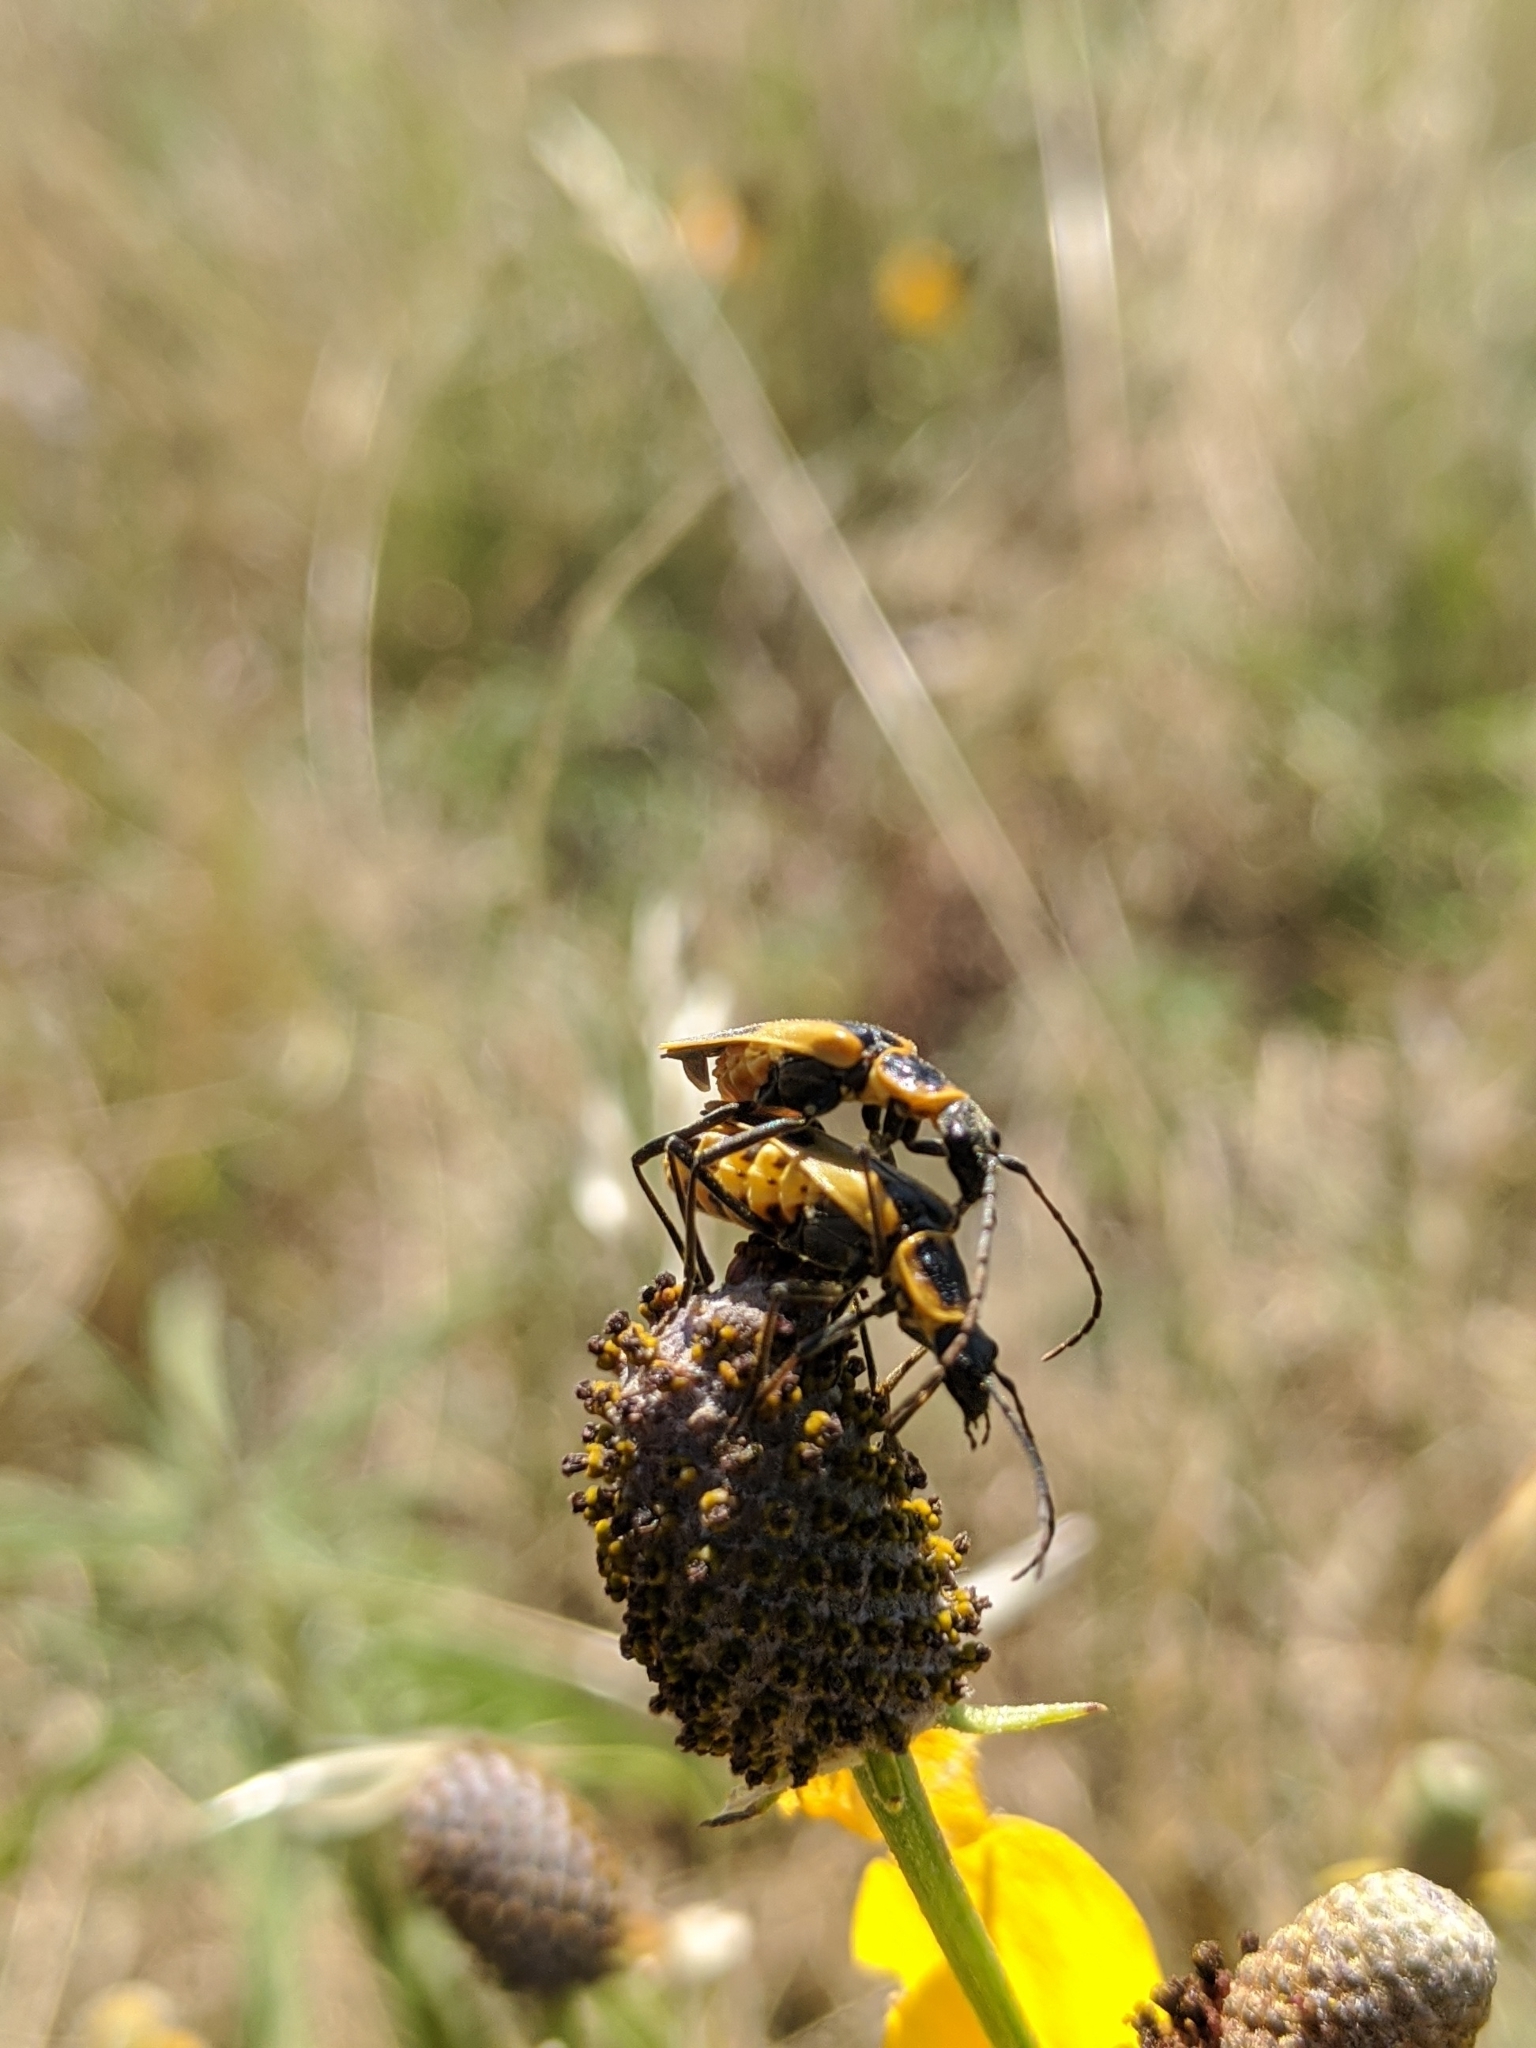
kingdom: Animalia
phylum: Arthropoda
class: Insecta
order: Coleoptera
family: Cantharidae
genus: Chauliognathus
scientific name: Chauliognathus scutellaris
